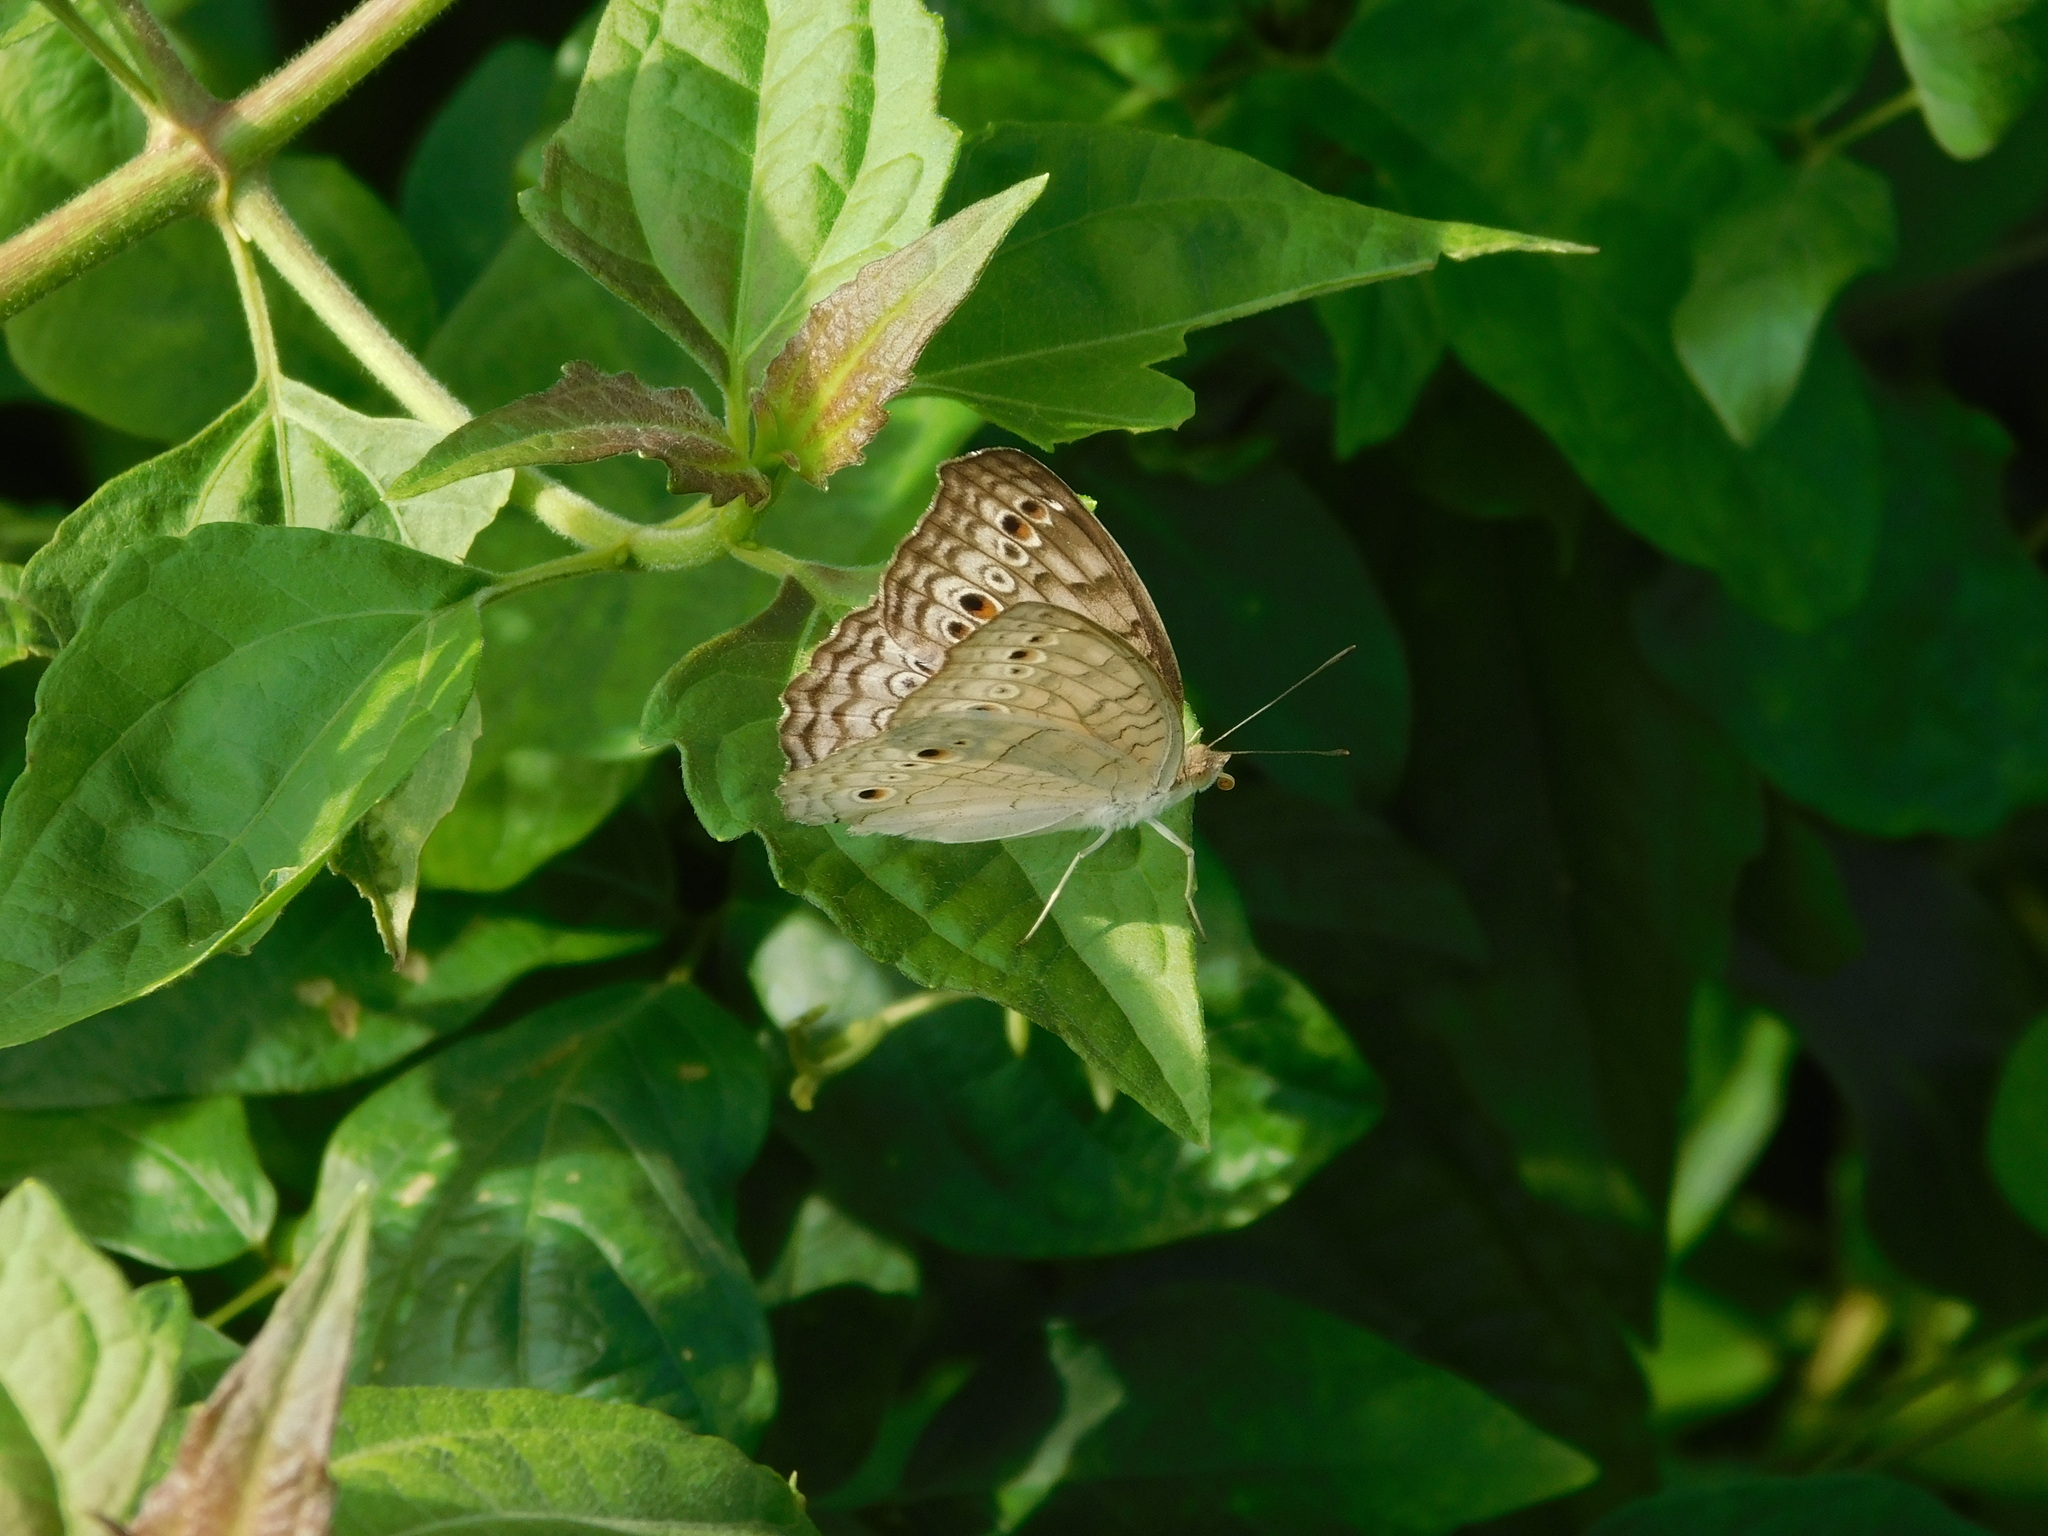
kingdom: Animalia
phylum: Arthropoda
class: Insecta
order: Lepidoptera
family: Nymphalidae
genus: Junonia
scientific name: Junonia atlites
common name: Grey pansy
